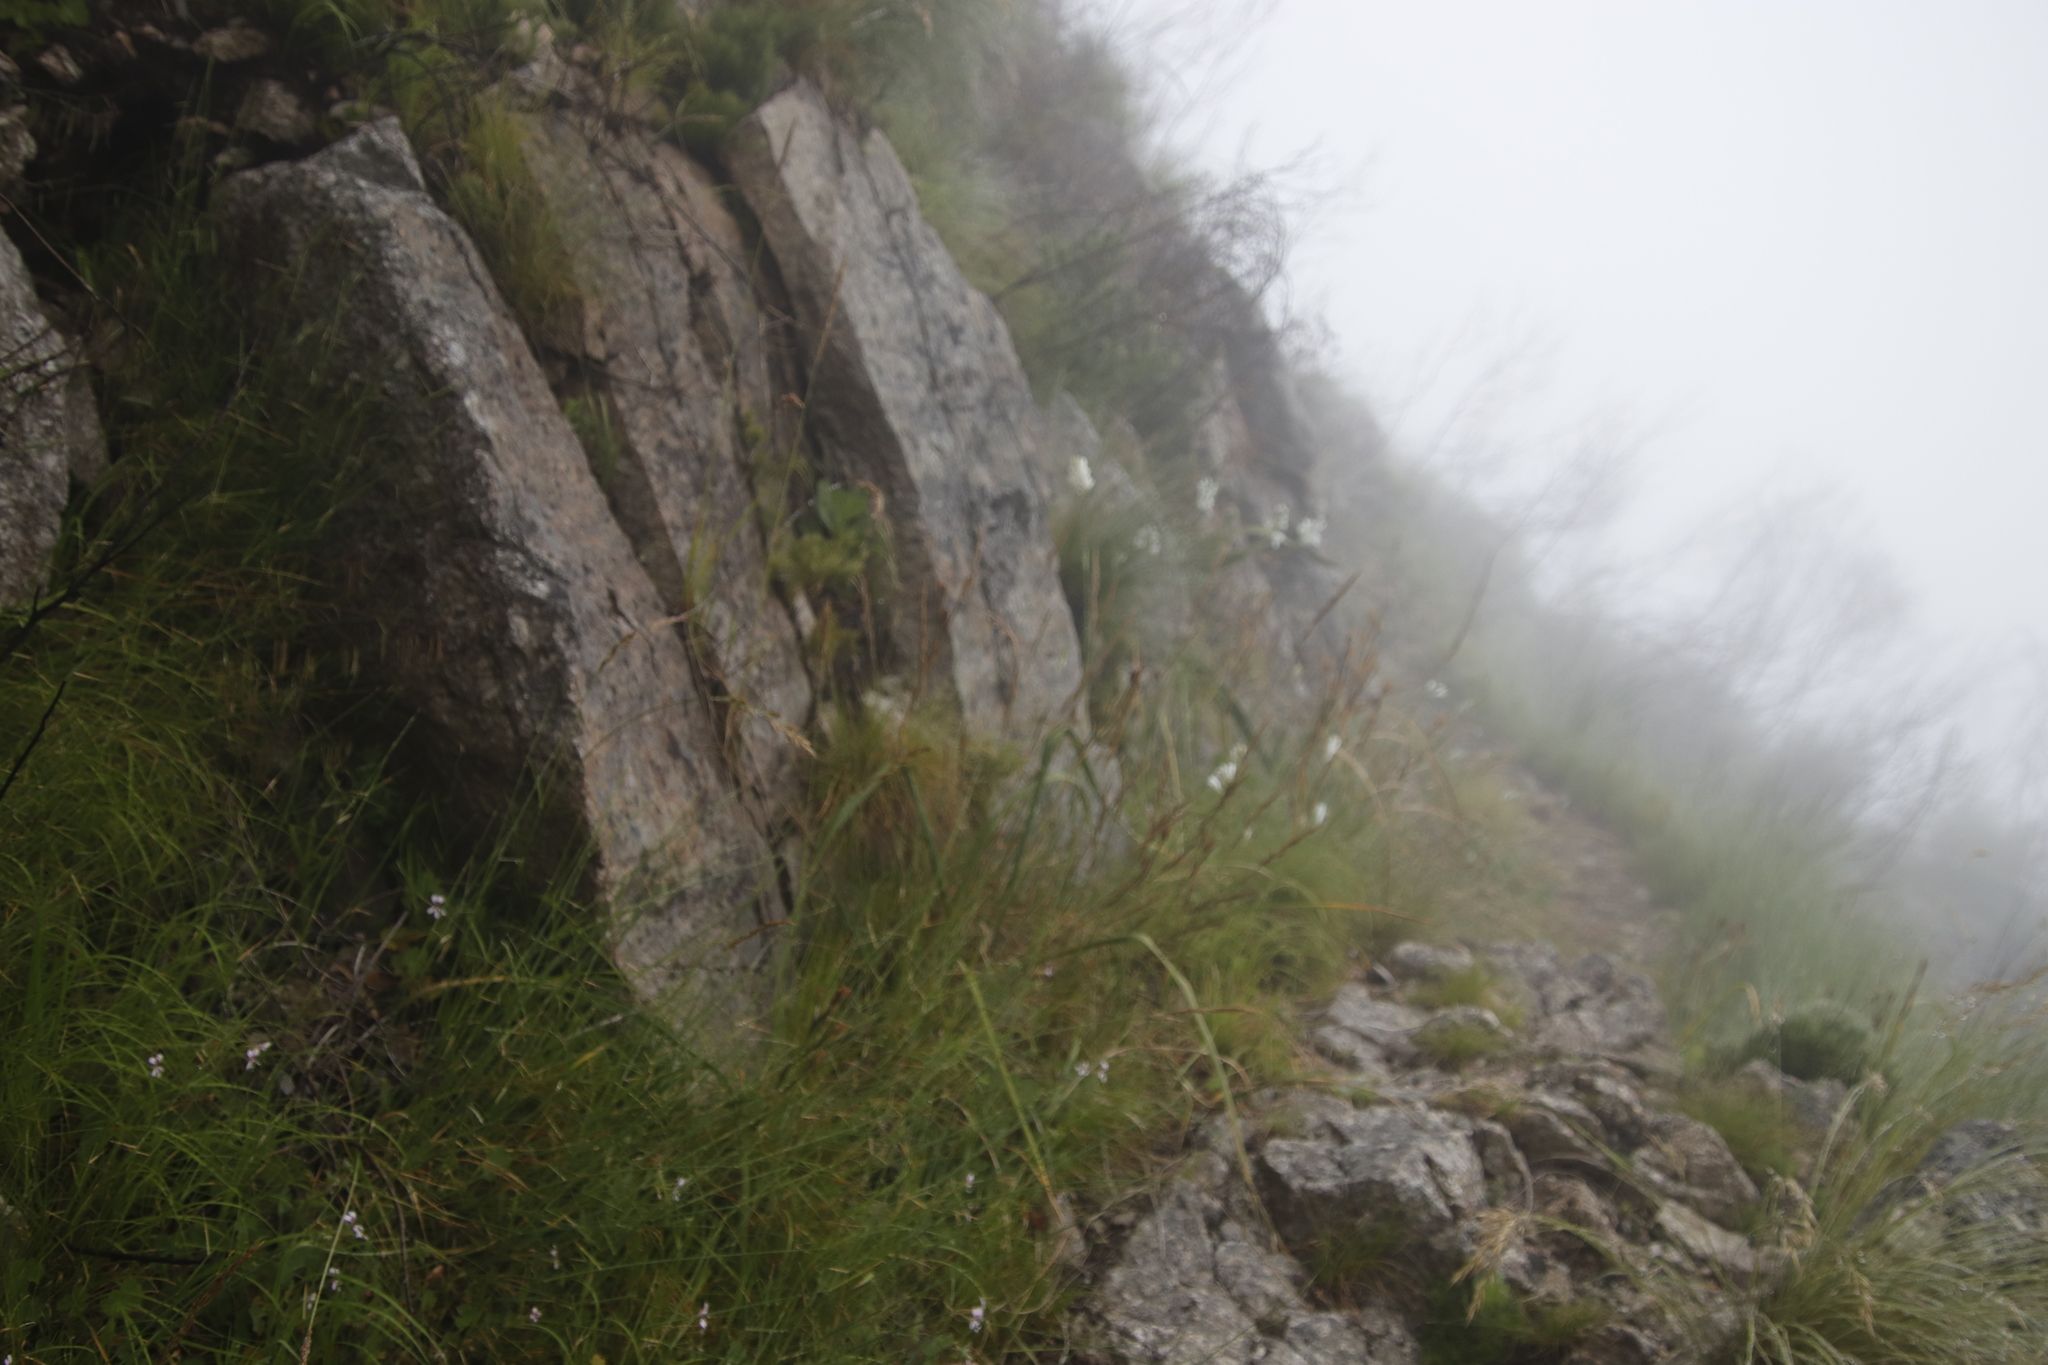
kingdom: Plantae
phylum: Tracheophyta
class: Liliopsida
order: Asparagales
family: Iridaceae
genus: Moraea
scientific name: Moraea ramosissima
